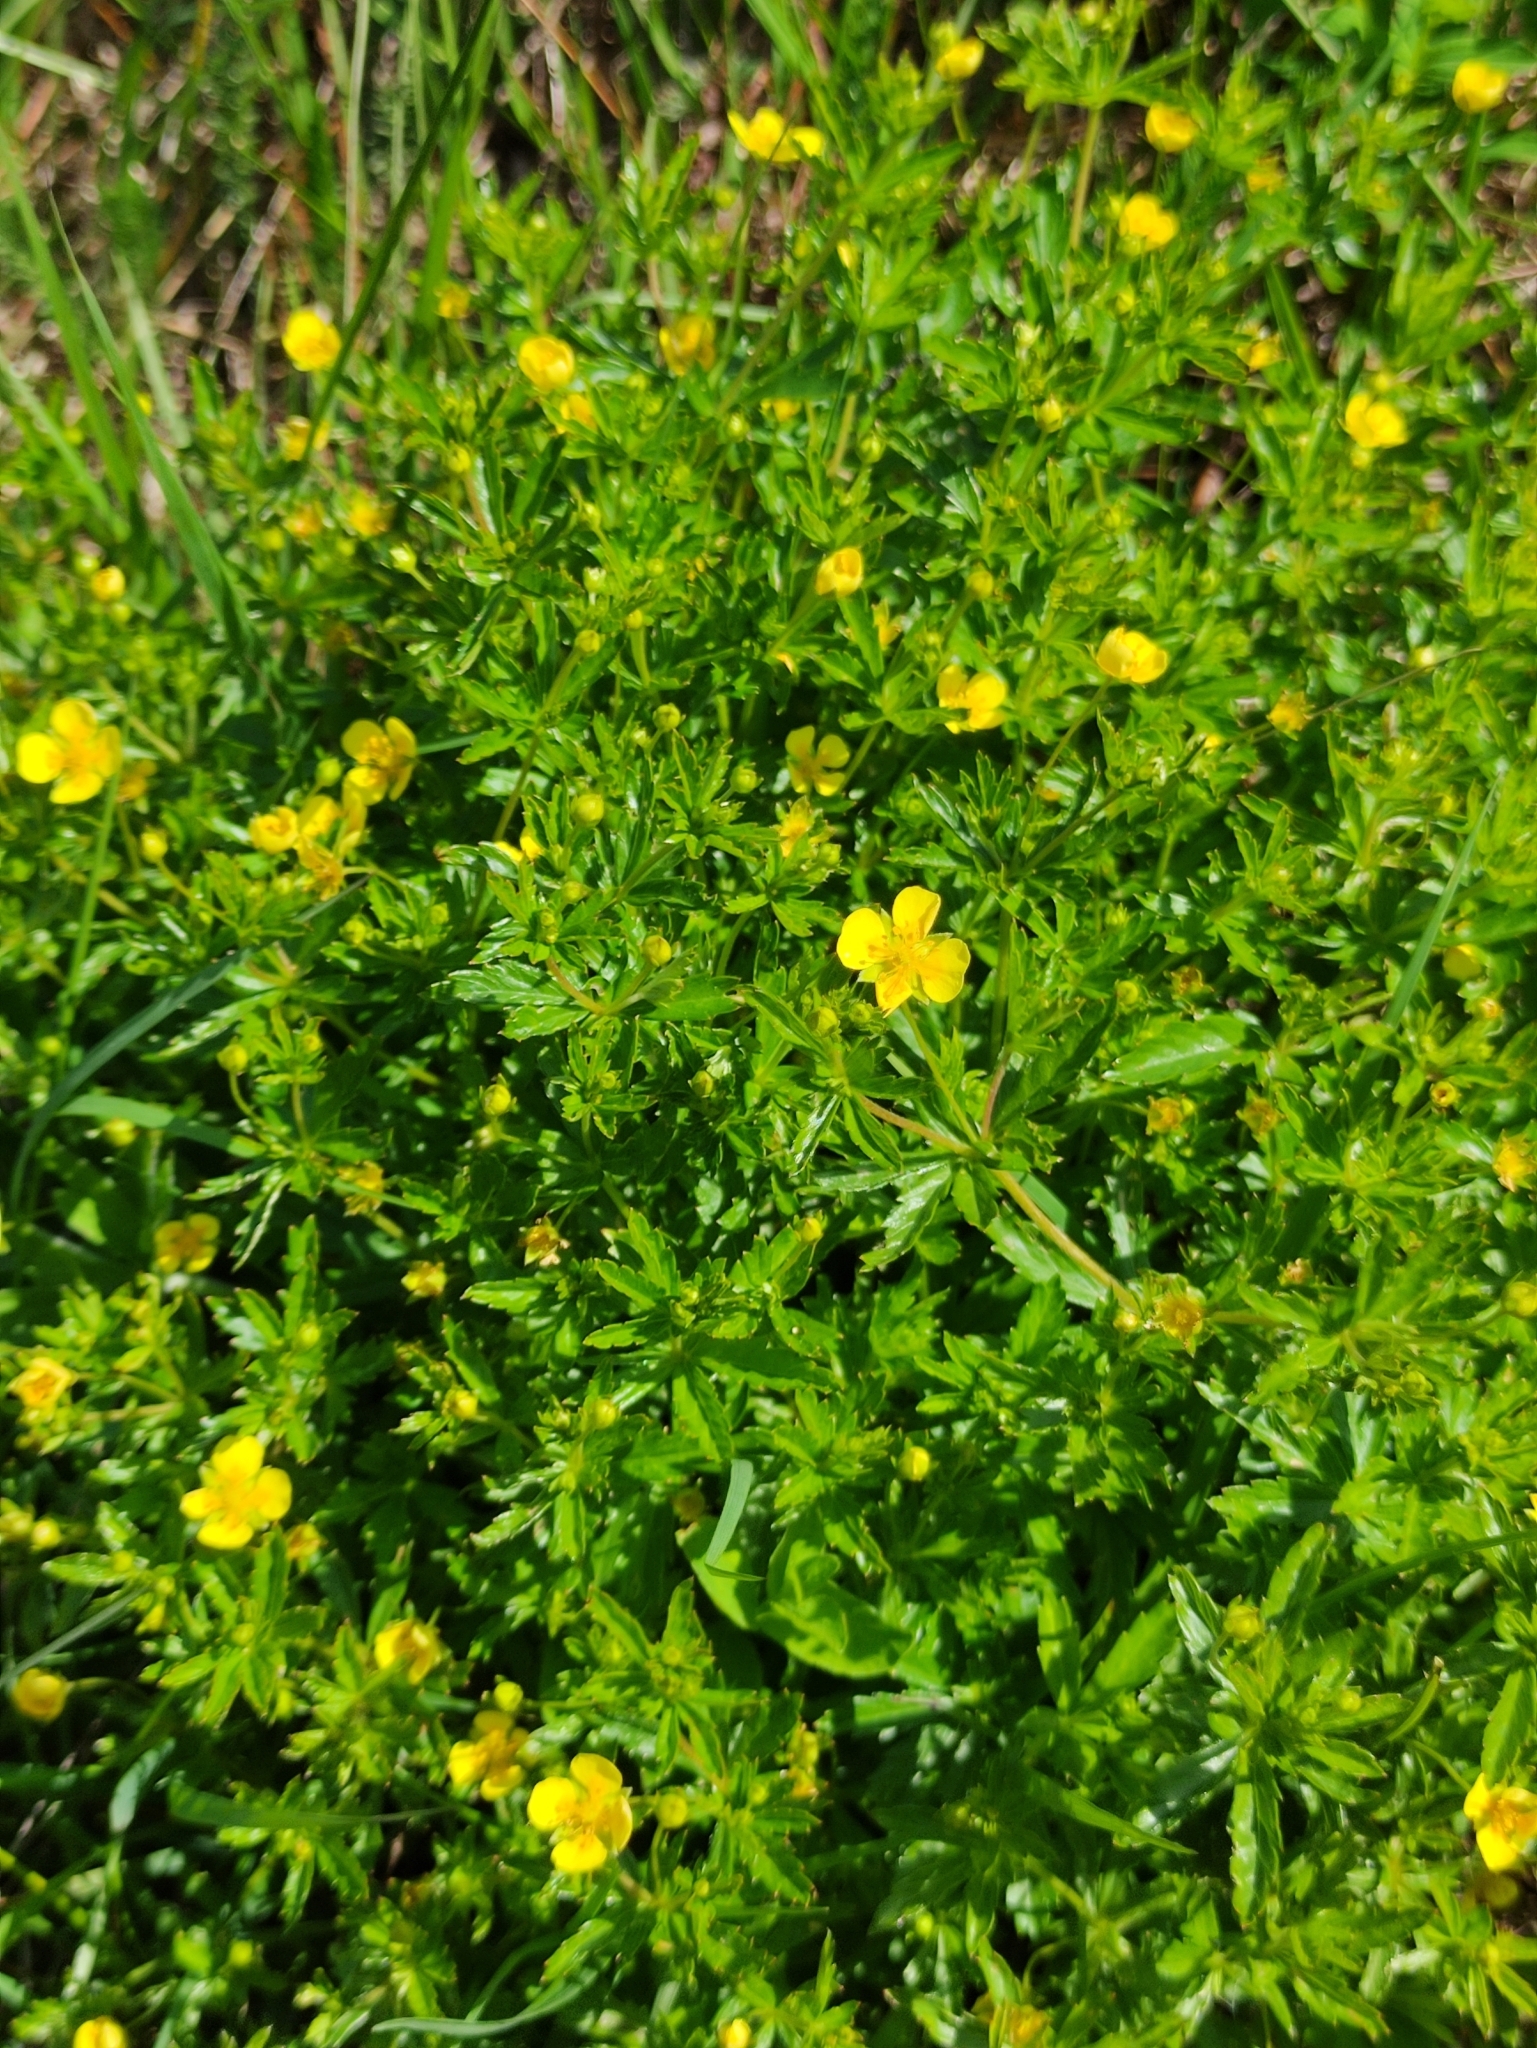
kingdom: Plantae
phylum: Tracheophyta
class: Magnoliopsida
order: Rosales
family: Rosaceae
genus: Potentilla
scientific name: Potentilla erecta
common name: Tormentil
